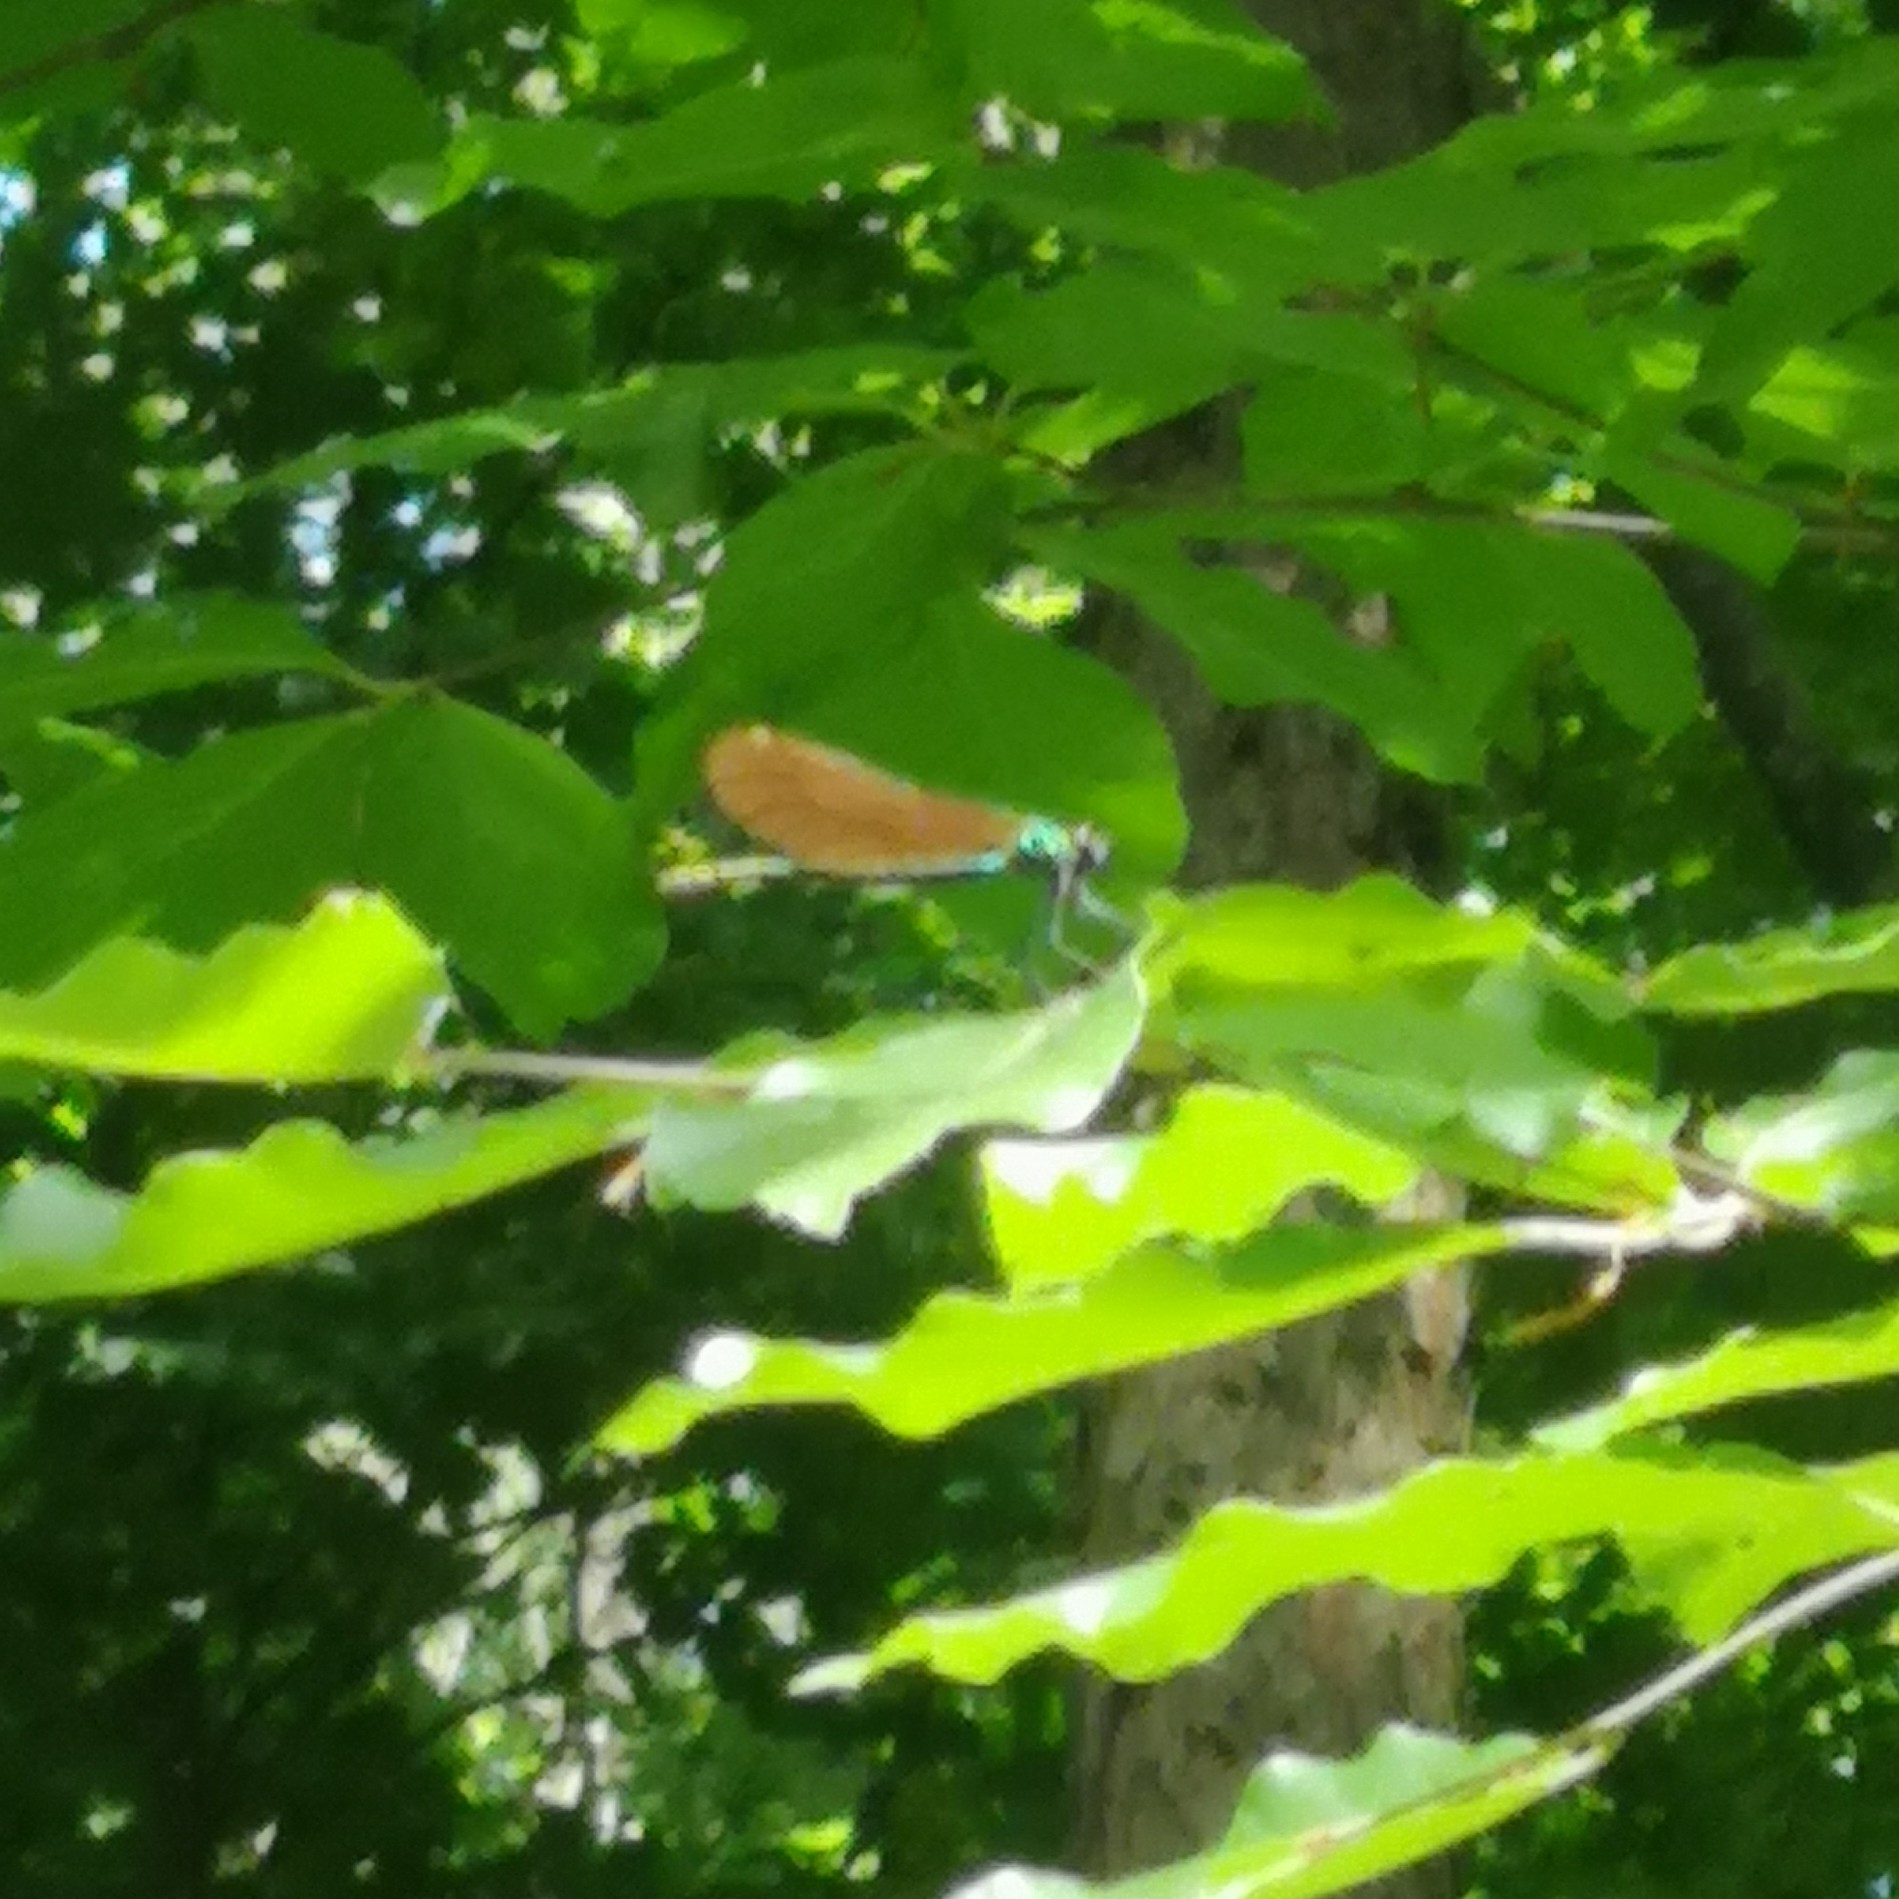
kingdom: Animalia
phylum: Arthropoda
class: Insecta
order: Odonata
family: Calopterygidae
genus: Calopteryx
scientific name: Calopteryx virgo
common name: Beautiful demoiselle
